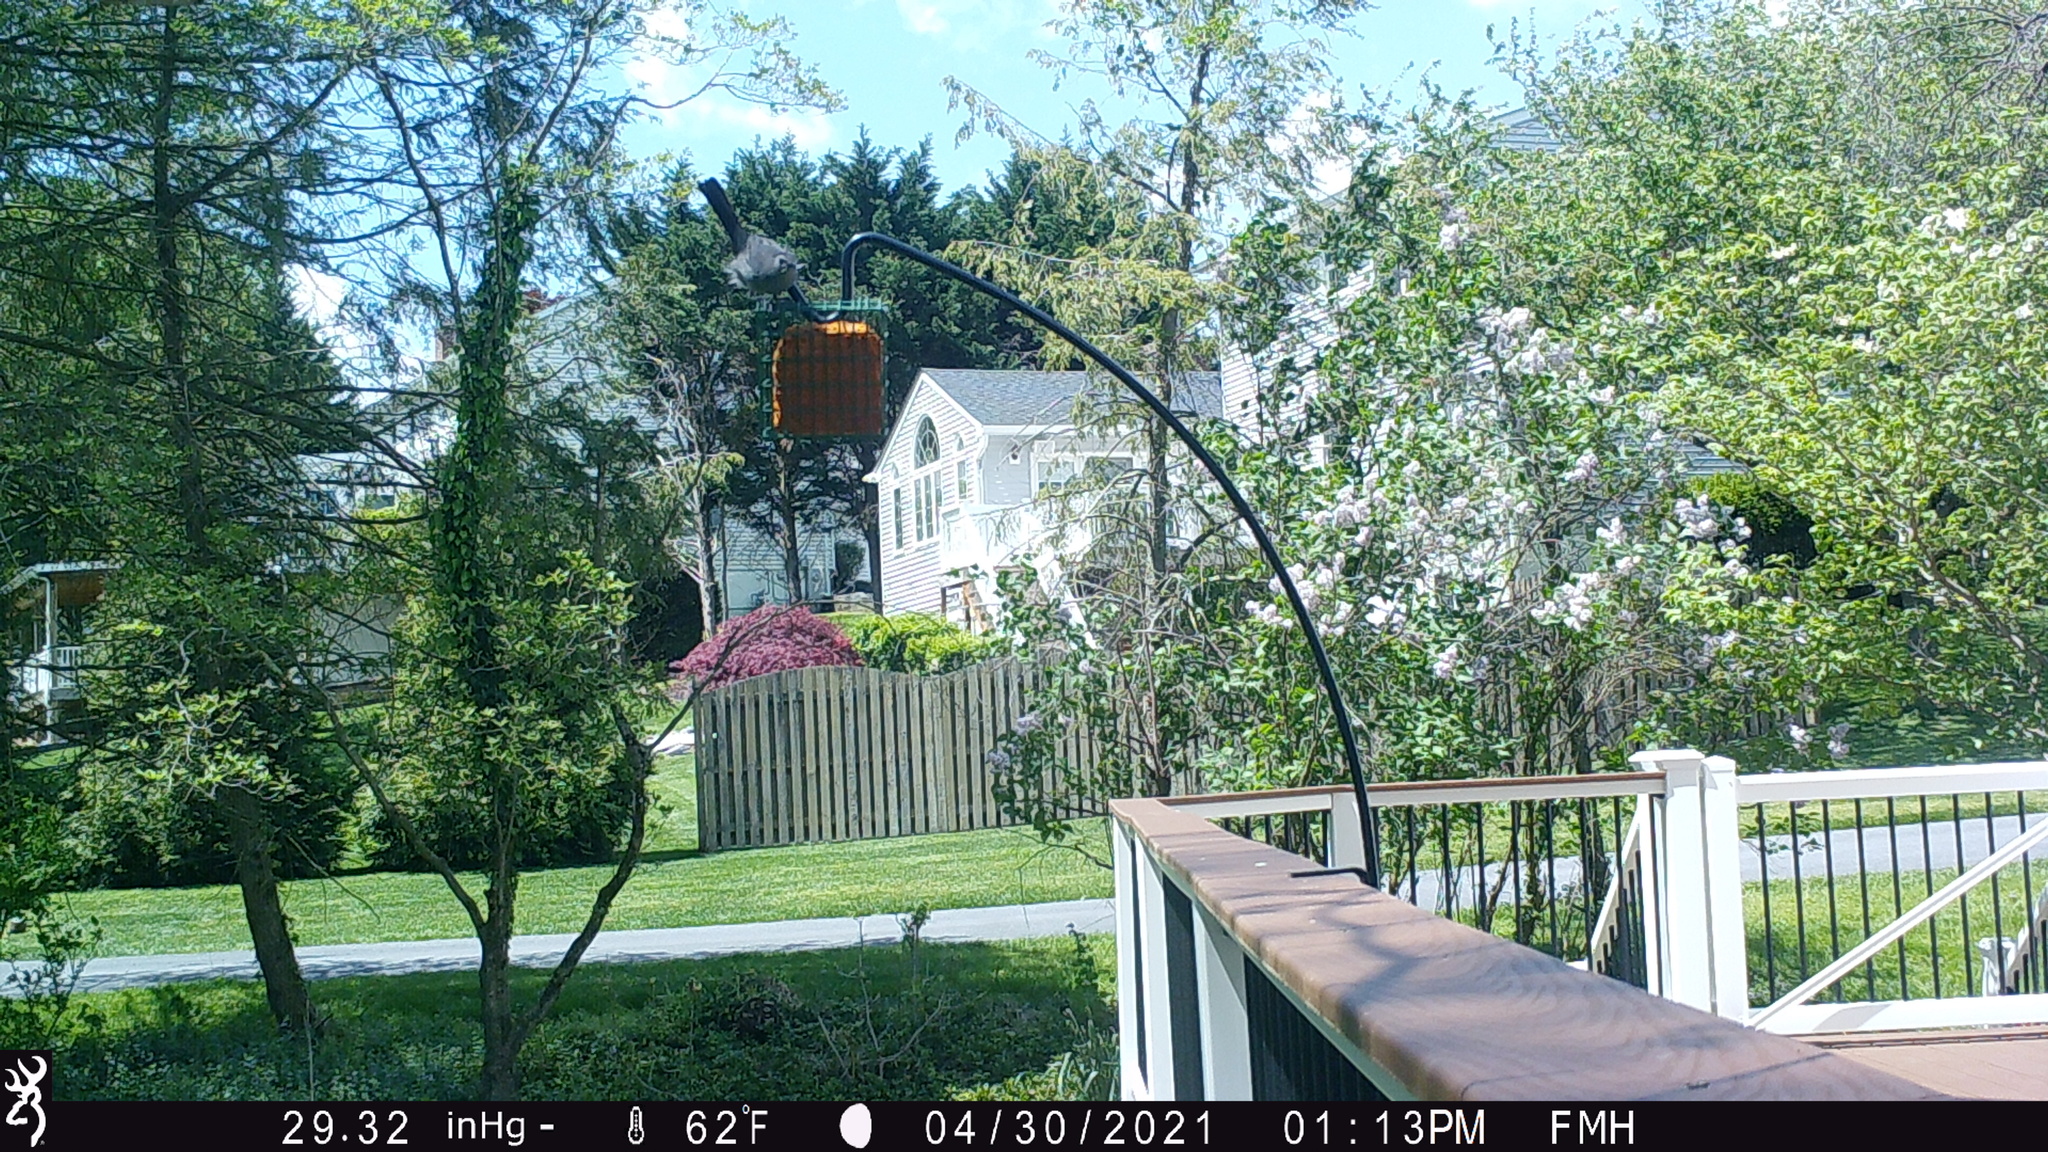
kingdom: Animalia
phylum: Chordata
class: Aves
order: Passeriformes
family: Mimidae
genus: Dumetella
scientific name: Dumetella carolinensis
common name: Gray catbird
